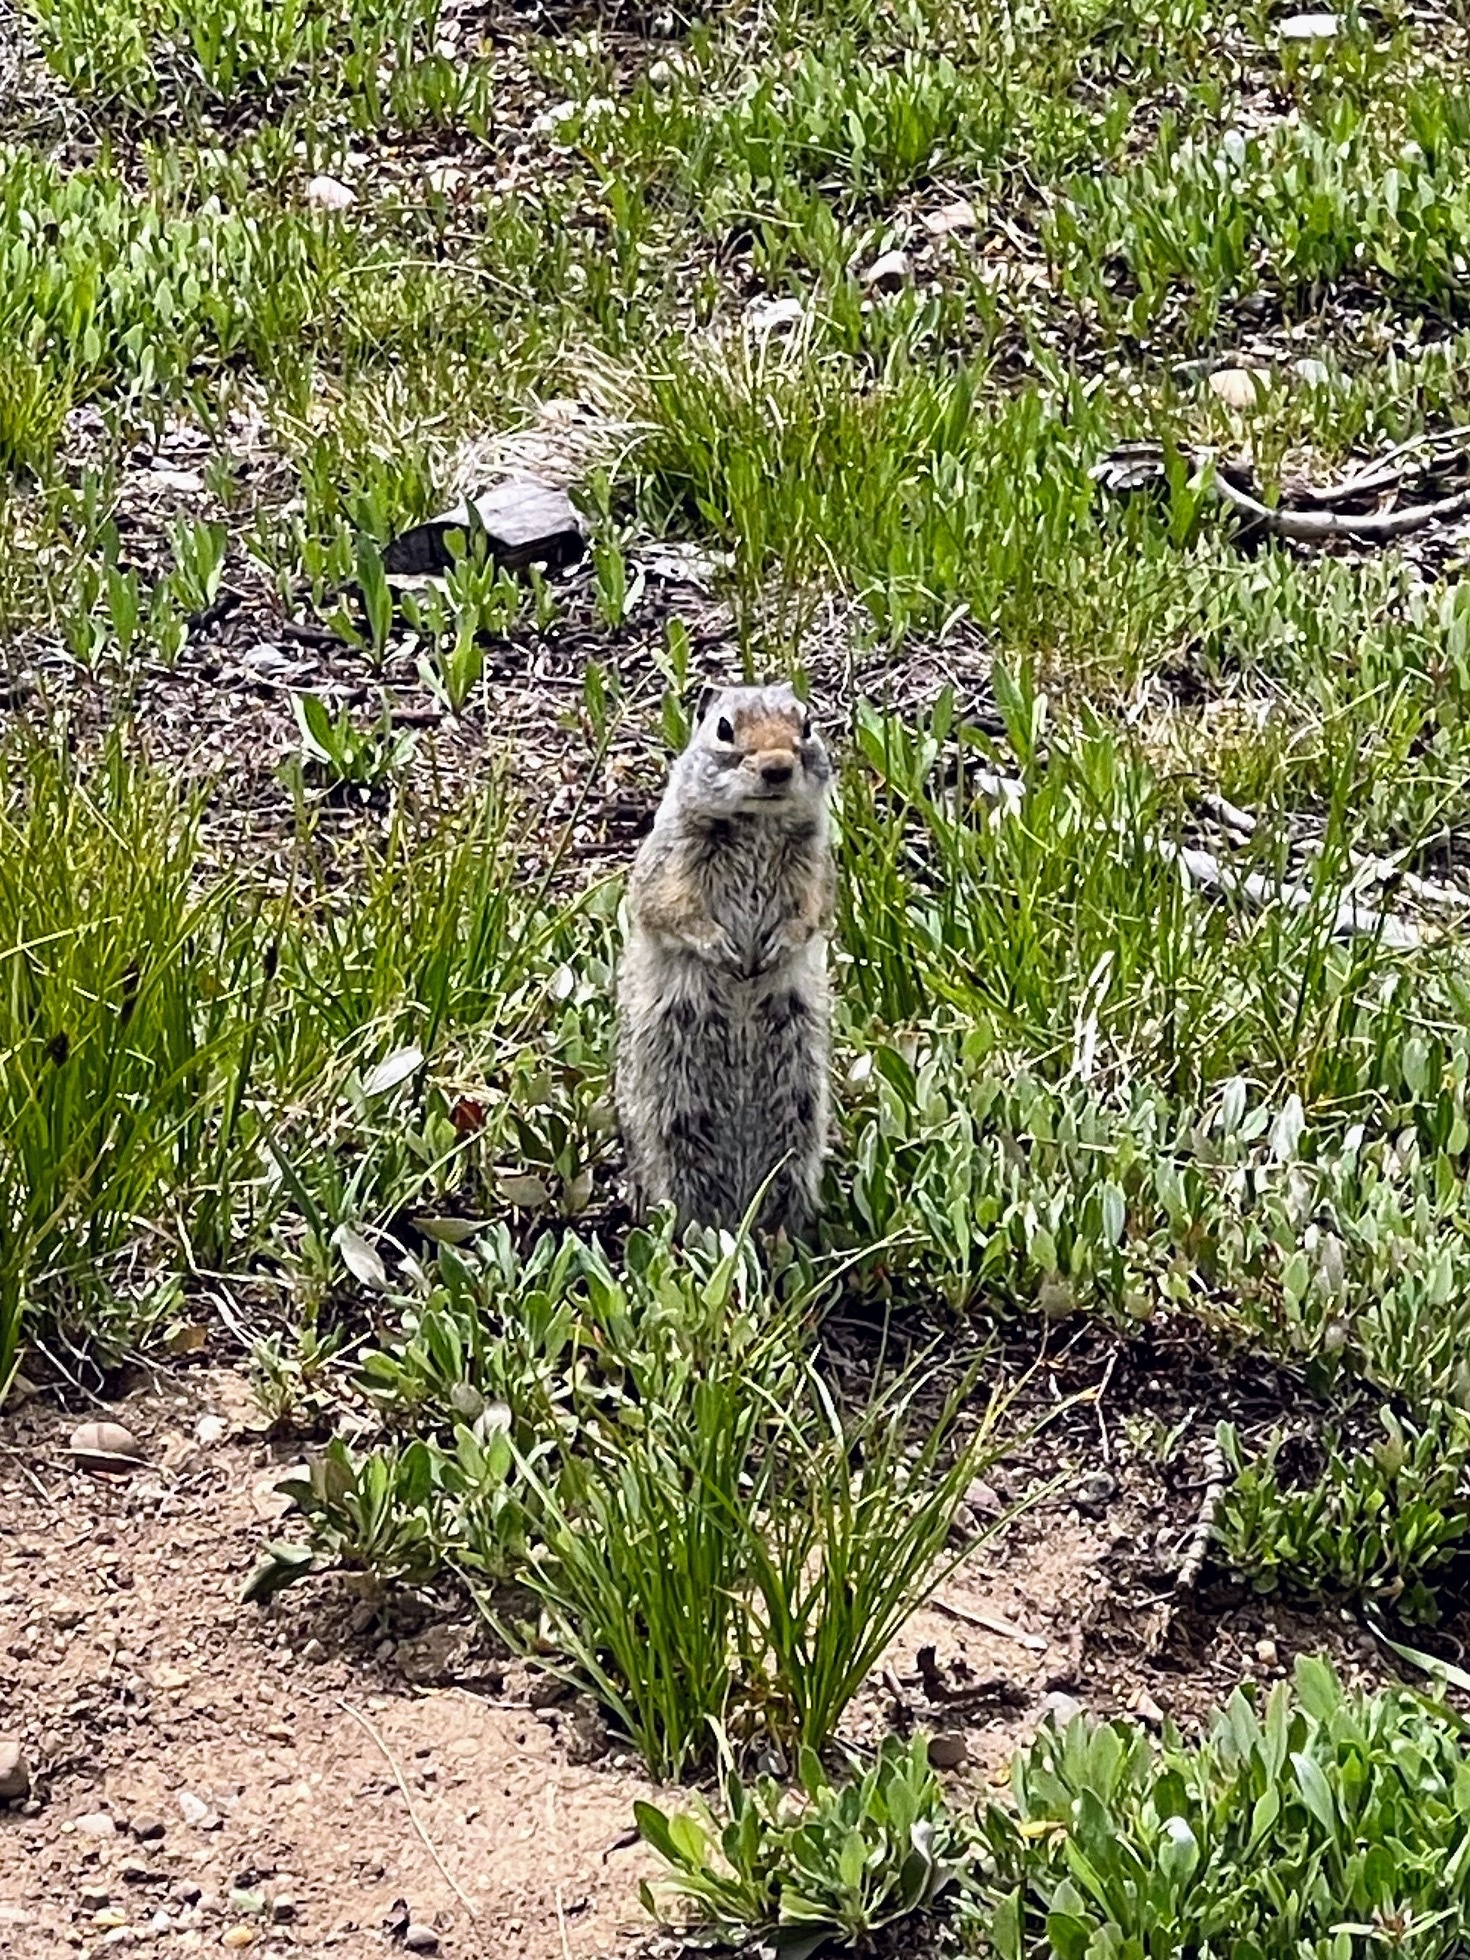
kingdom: Animalia
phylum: Chordata
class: Mammalia
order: Rodentia
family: Sciuridae
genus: Urocitellus
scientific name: Urocitellus armatus
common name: Uinta ground squirrel
